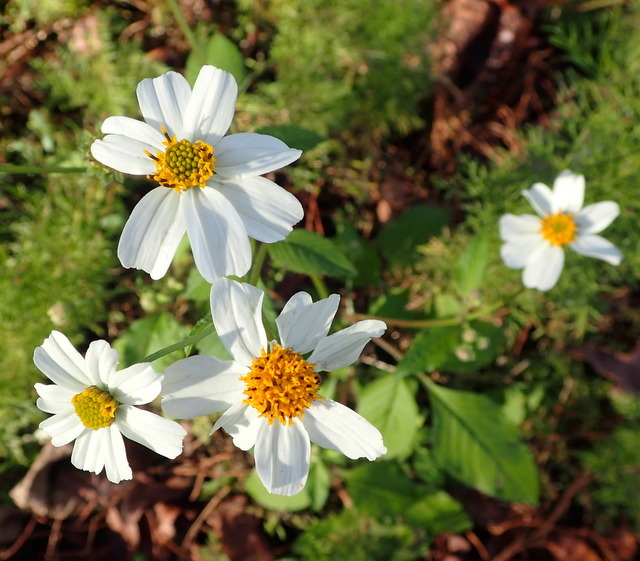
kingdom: Plantae
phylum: Tracheophyta
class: Magnoliopsida
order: Asterales
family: Asteraceae
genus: Bidens
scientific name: Bidens alba
